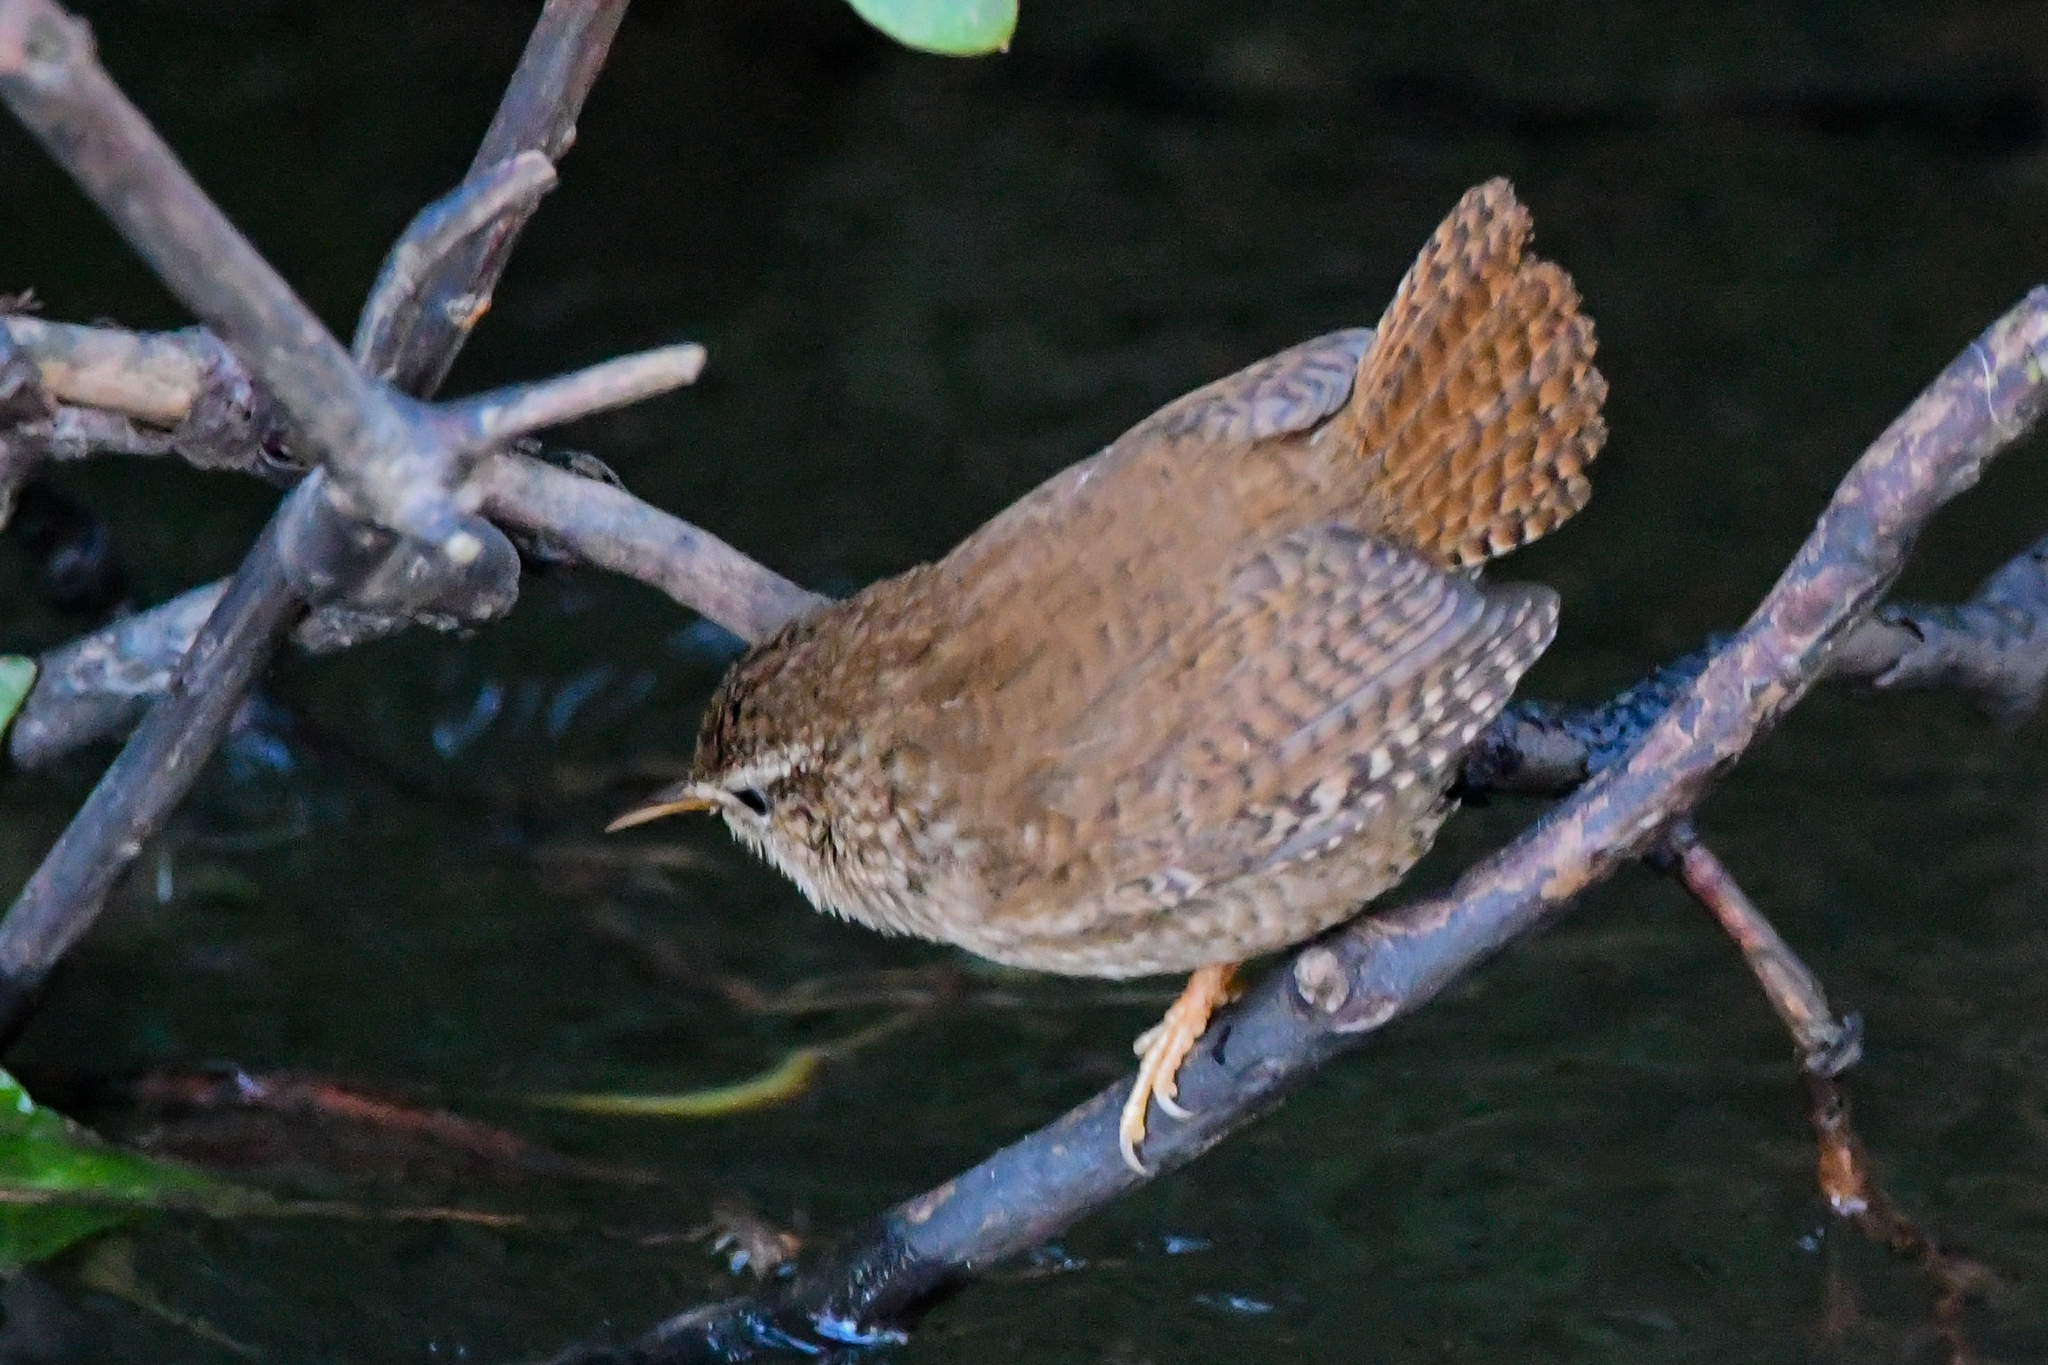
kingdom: Animalia
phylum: Chordata
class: Aves
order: Passeriformes
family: Troglodytidae
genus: Troglodytes
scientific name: Troglodytes troglodytes
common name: Eurasian wren
